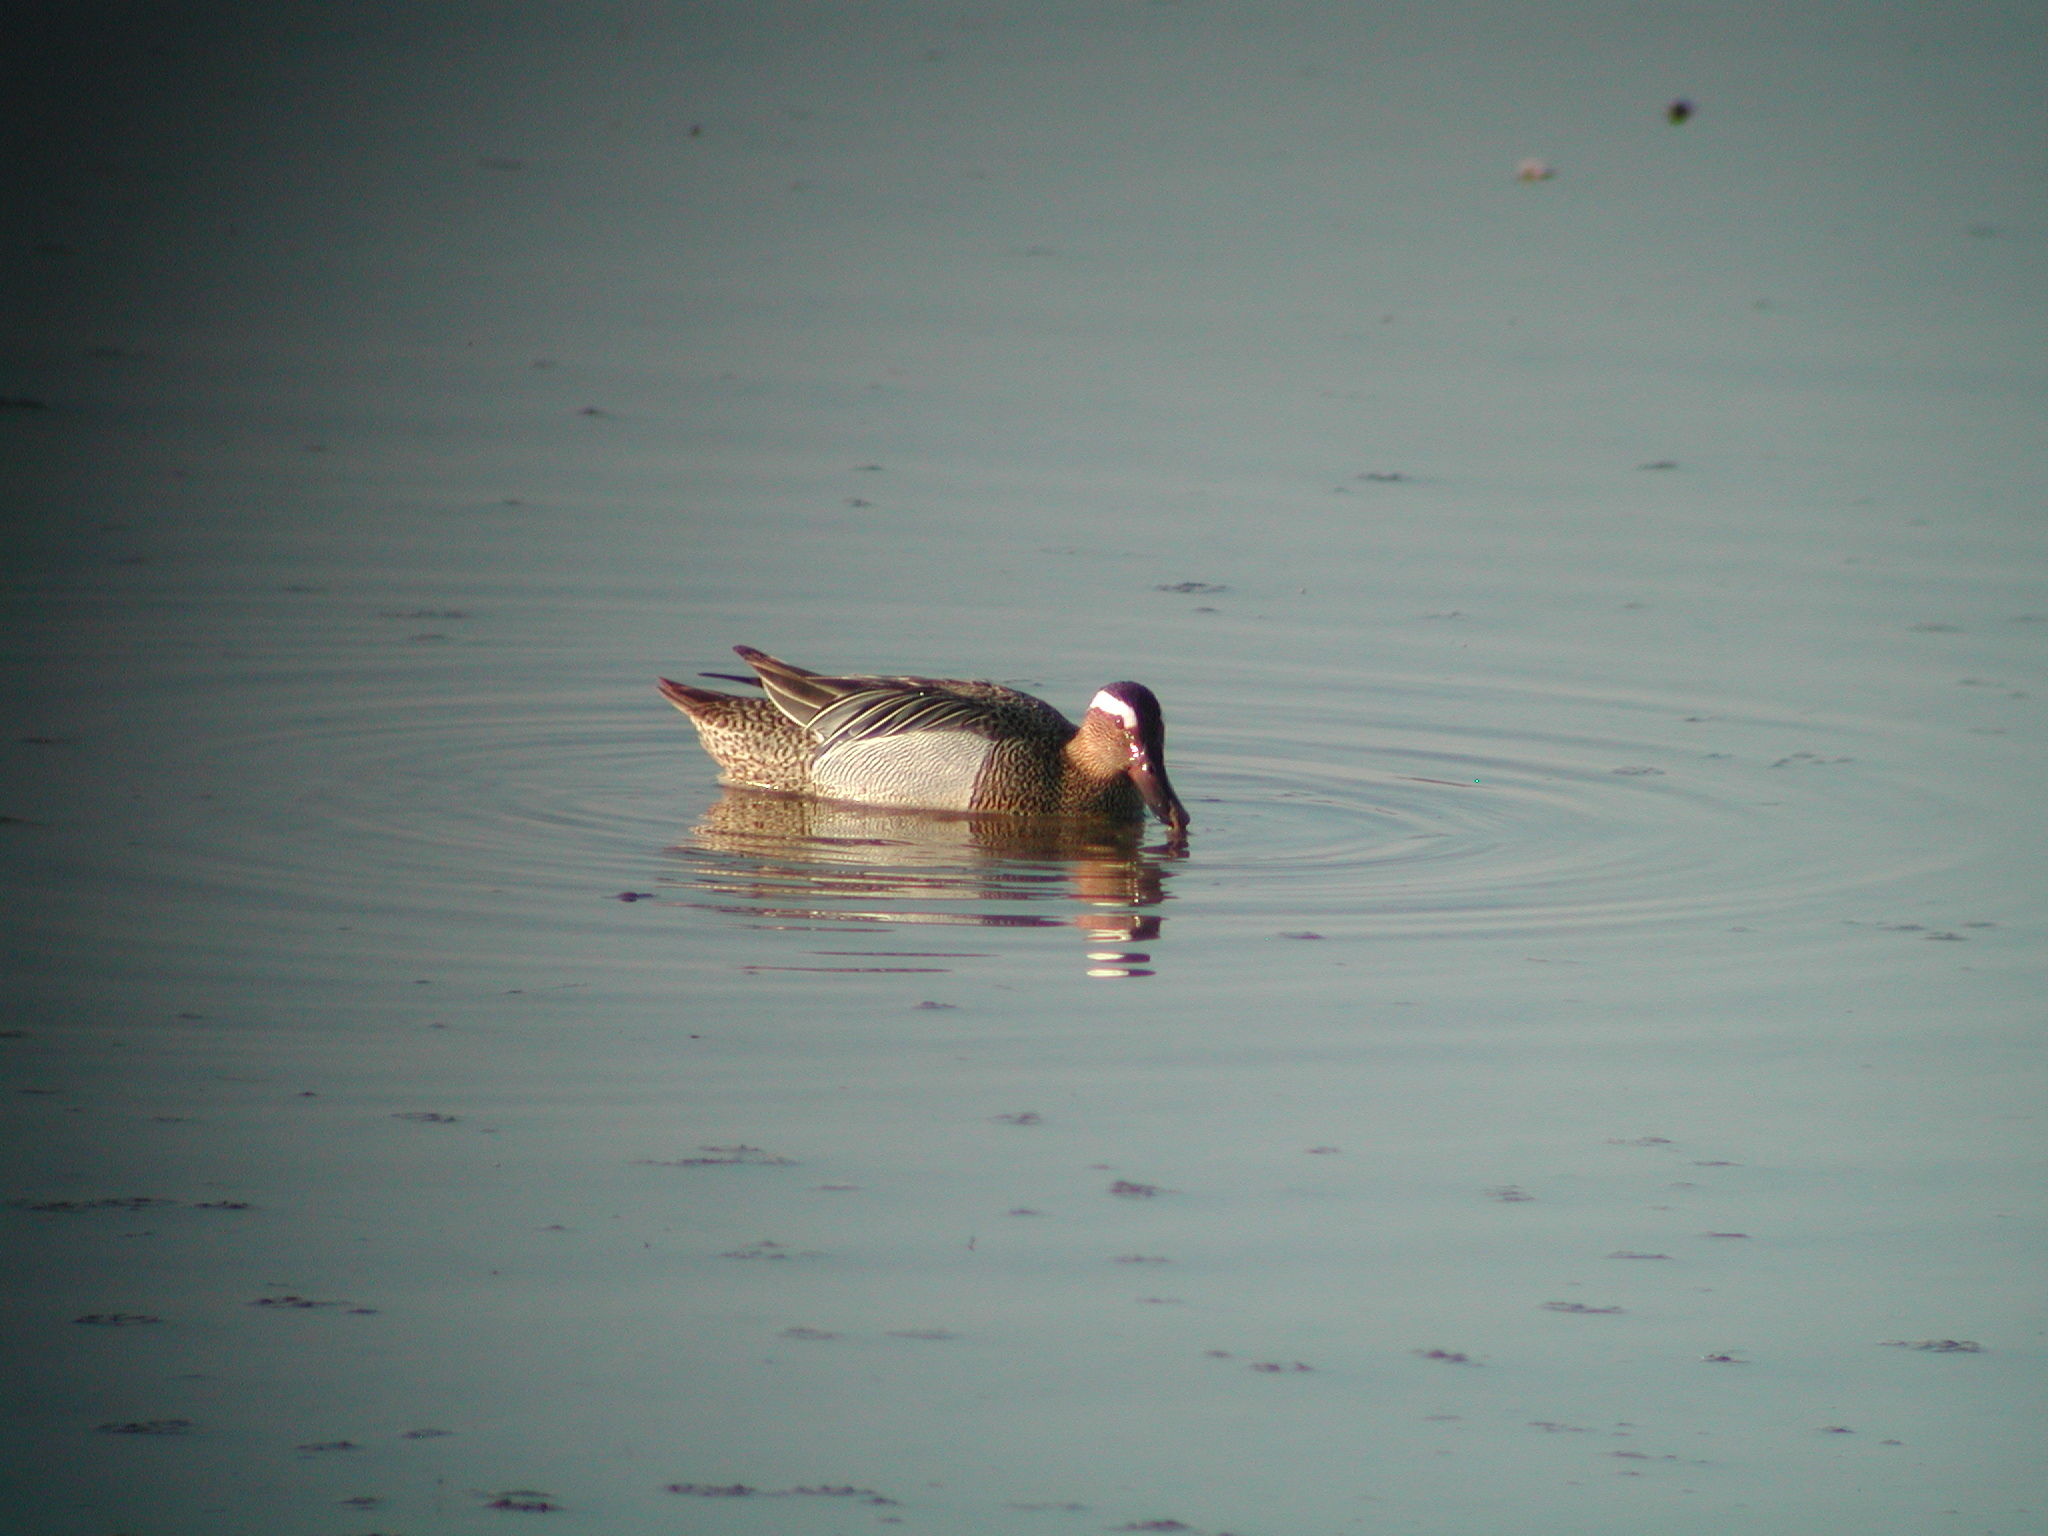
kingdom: Animalia
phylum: Chordata
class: Aves
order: Anseriformes
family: Anatidae
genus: Spatula
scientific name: Spatula querquedula
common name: Garganey
